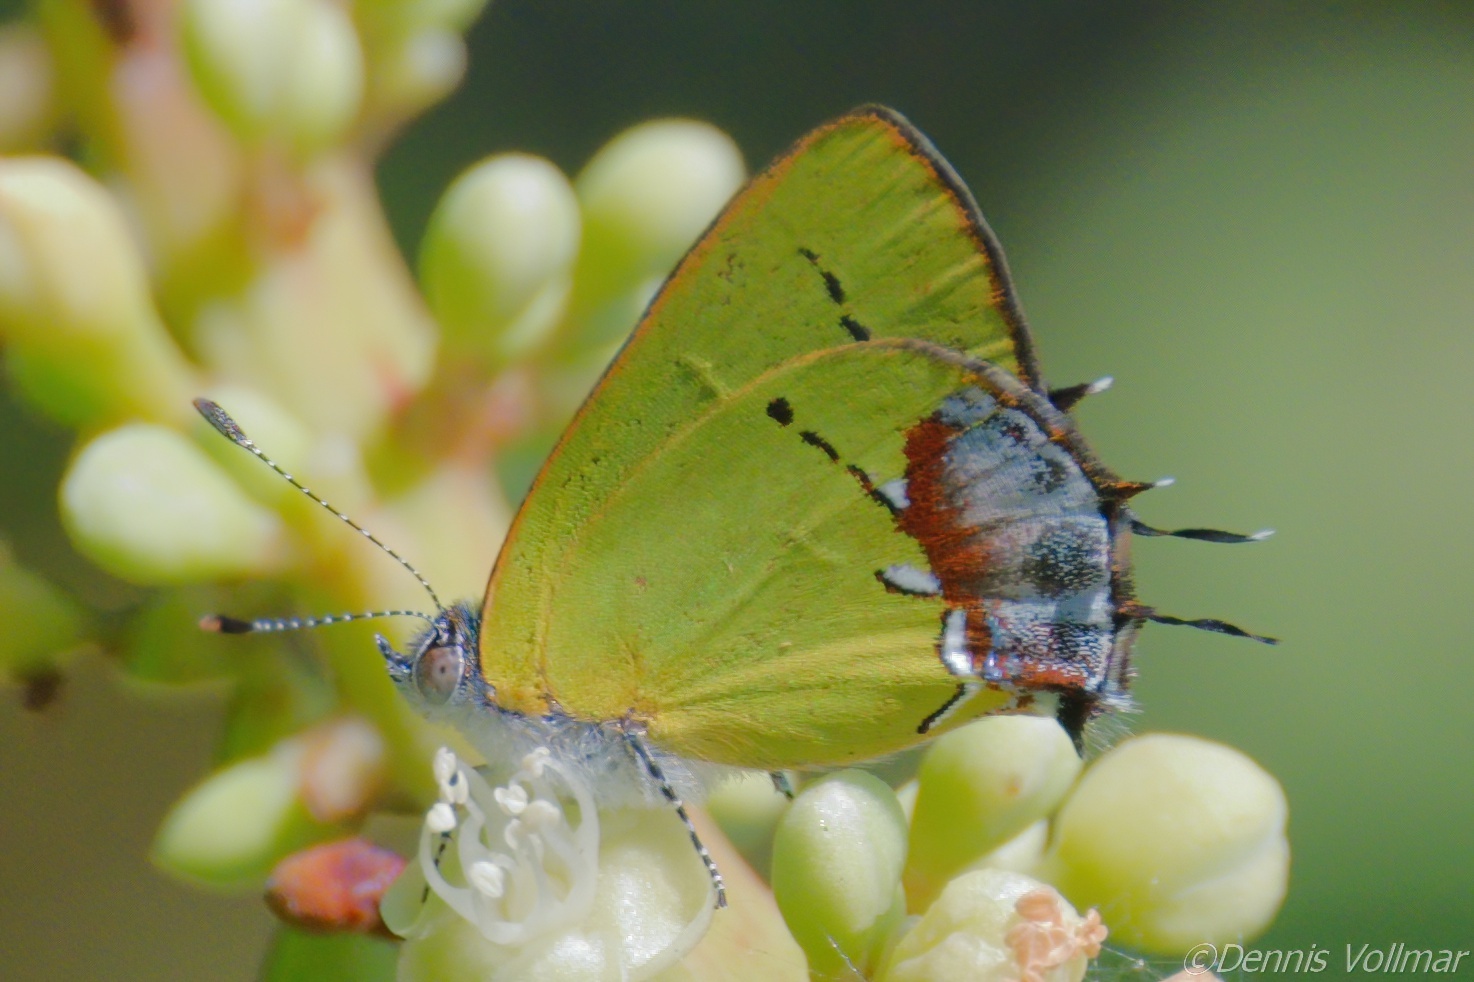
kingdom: Animalia
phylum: Arthropoda
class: Insecta
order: Lepidoptera
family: Lycaenidae
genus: Thecla
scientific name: Thecla maesites
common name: Verde azul hairstreak
